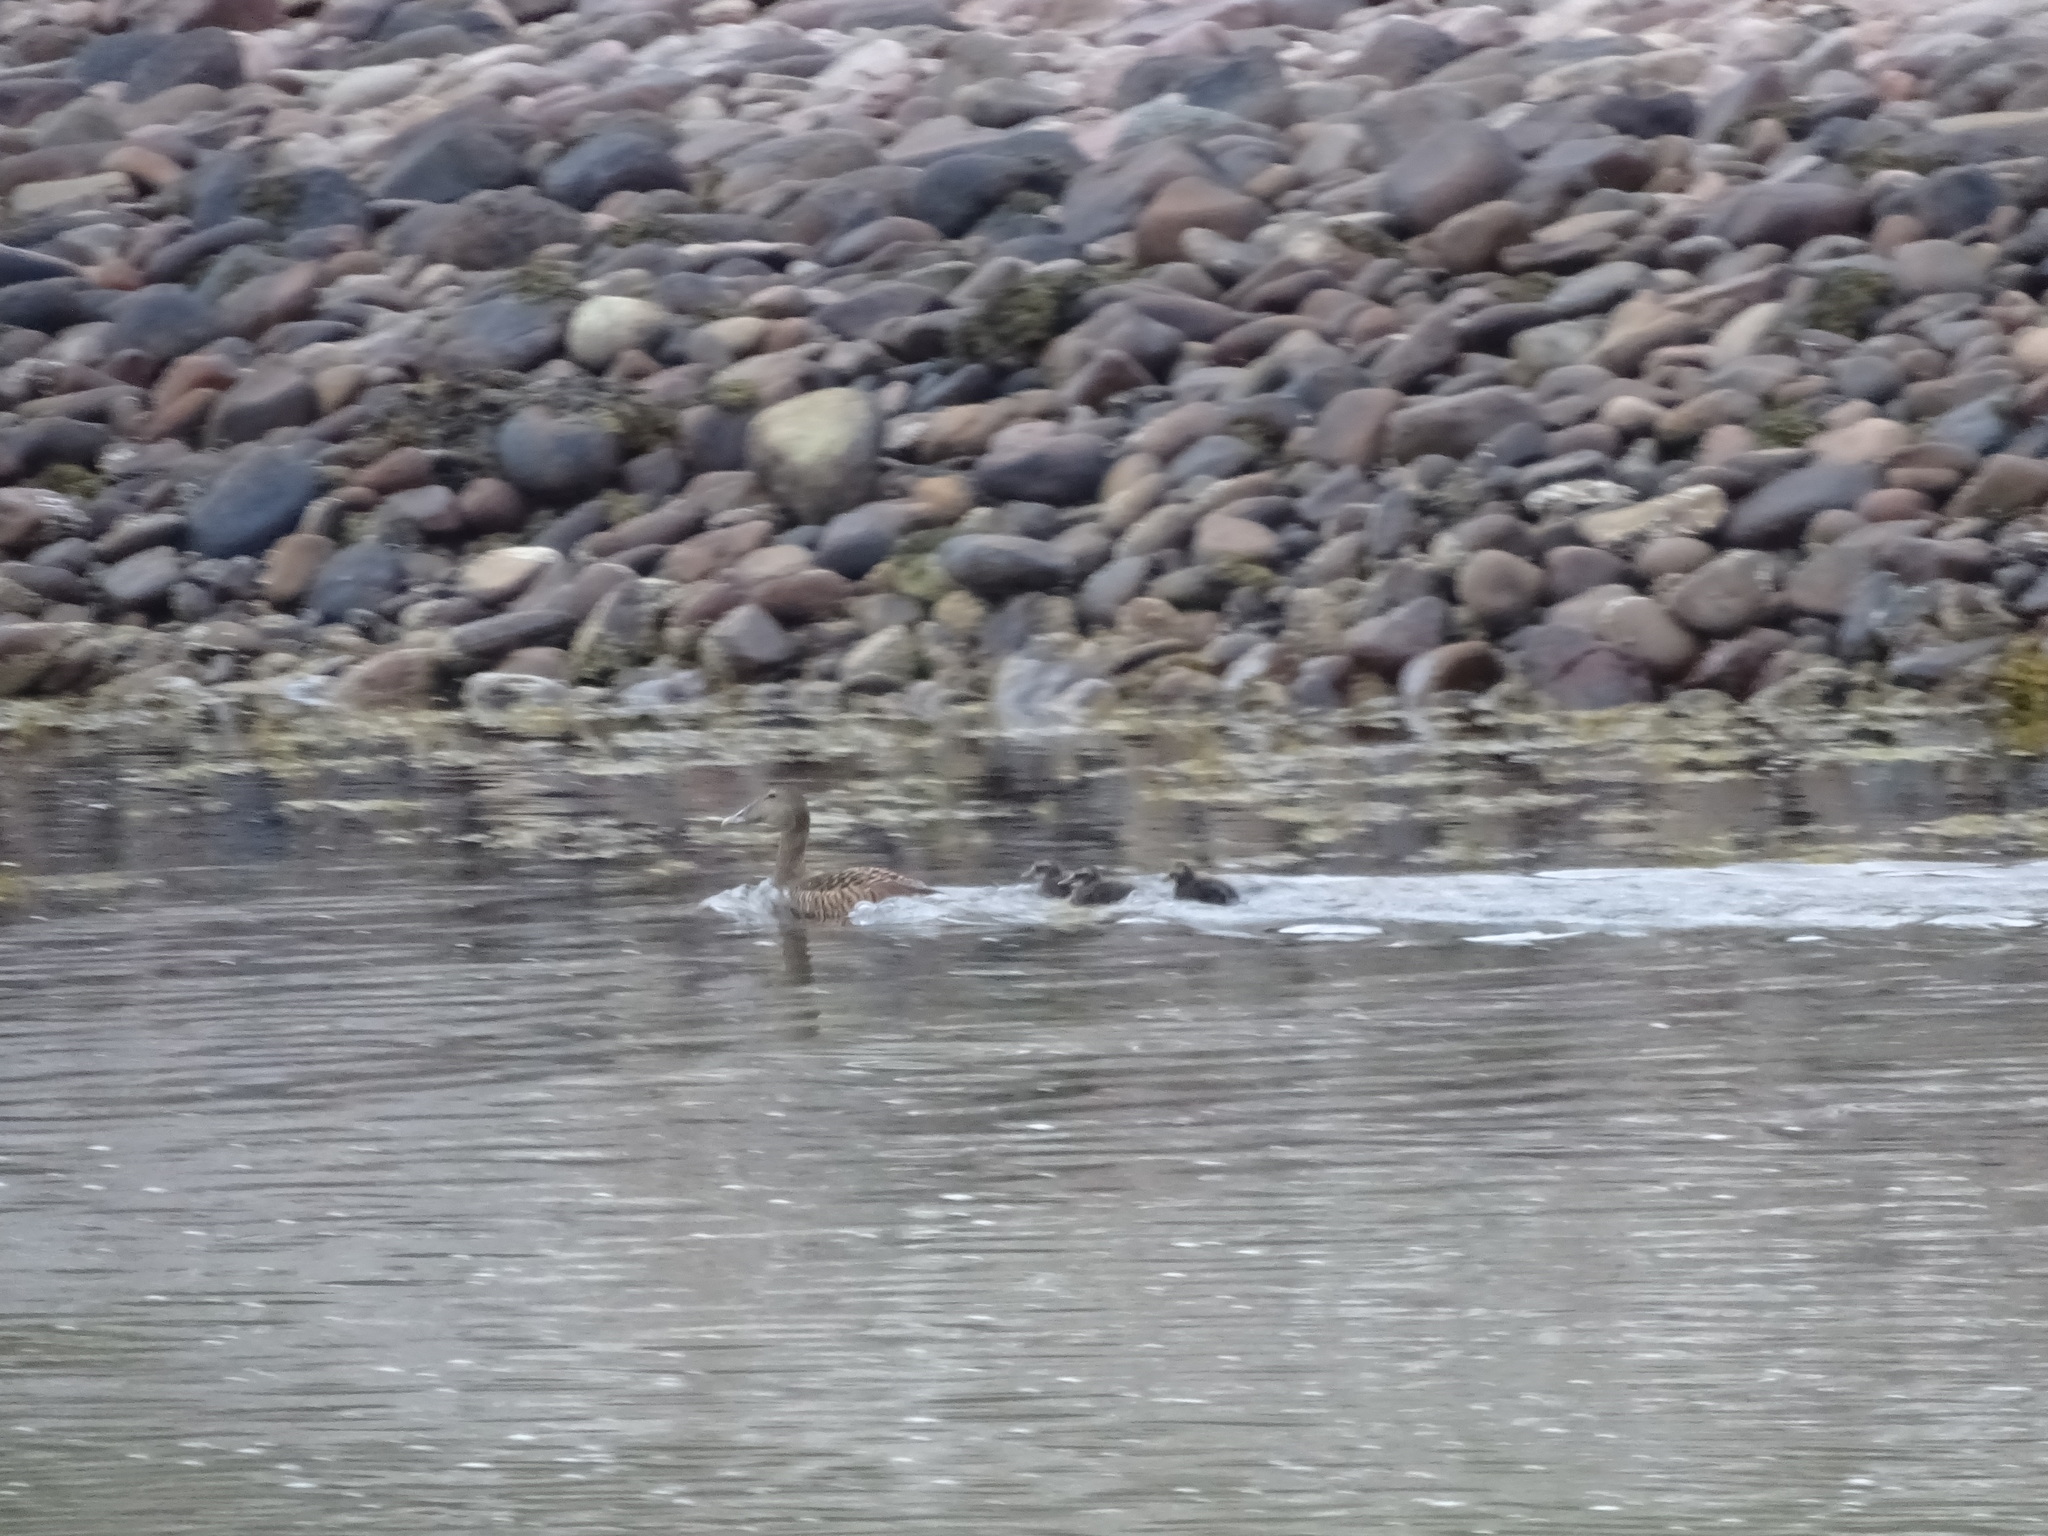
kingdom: Animalia
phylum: Chordata
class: Aves
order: Anseriformes
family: Anatidae
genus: Somateria
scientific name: Somateria mollissima
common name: Common eider
